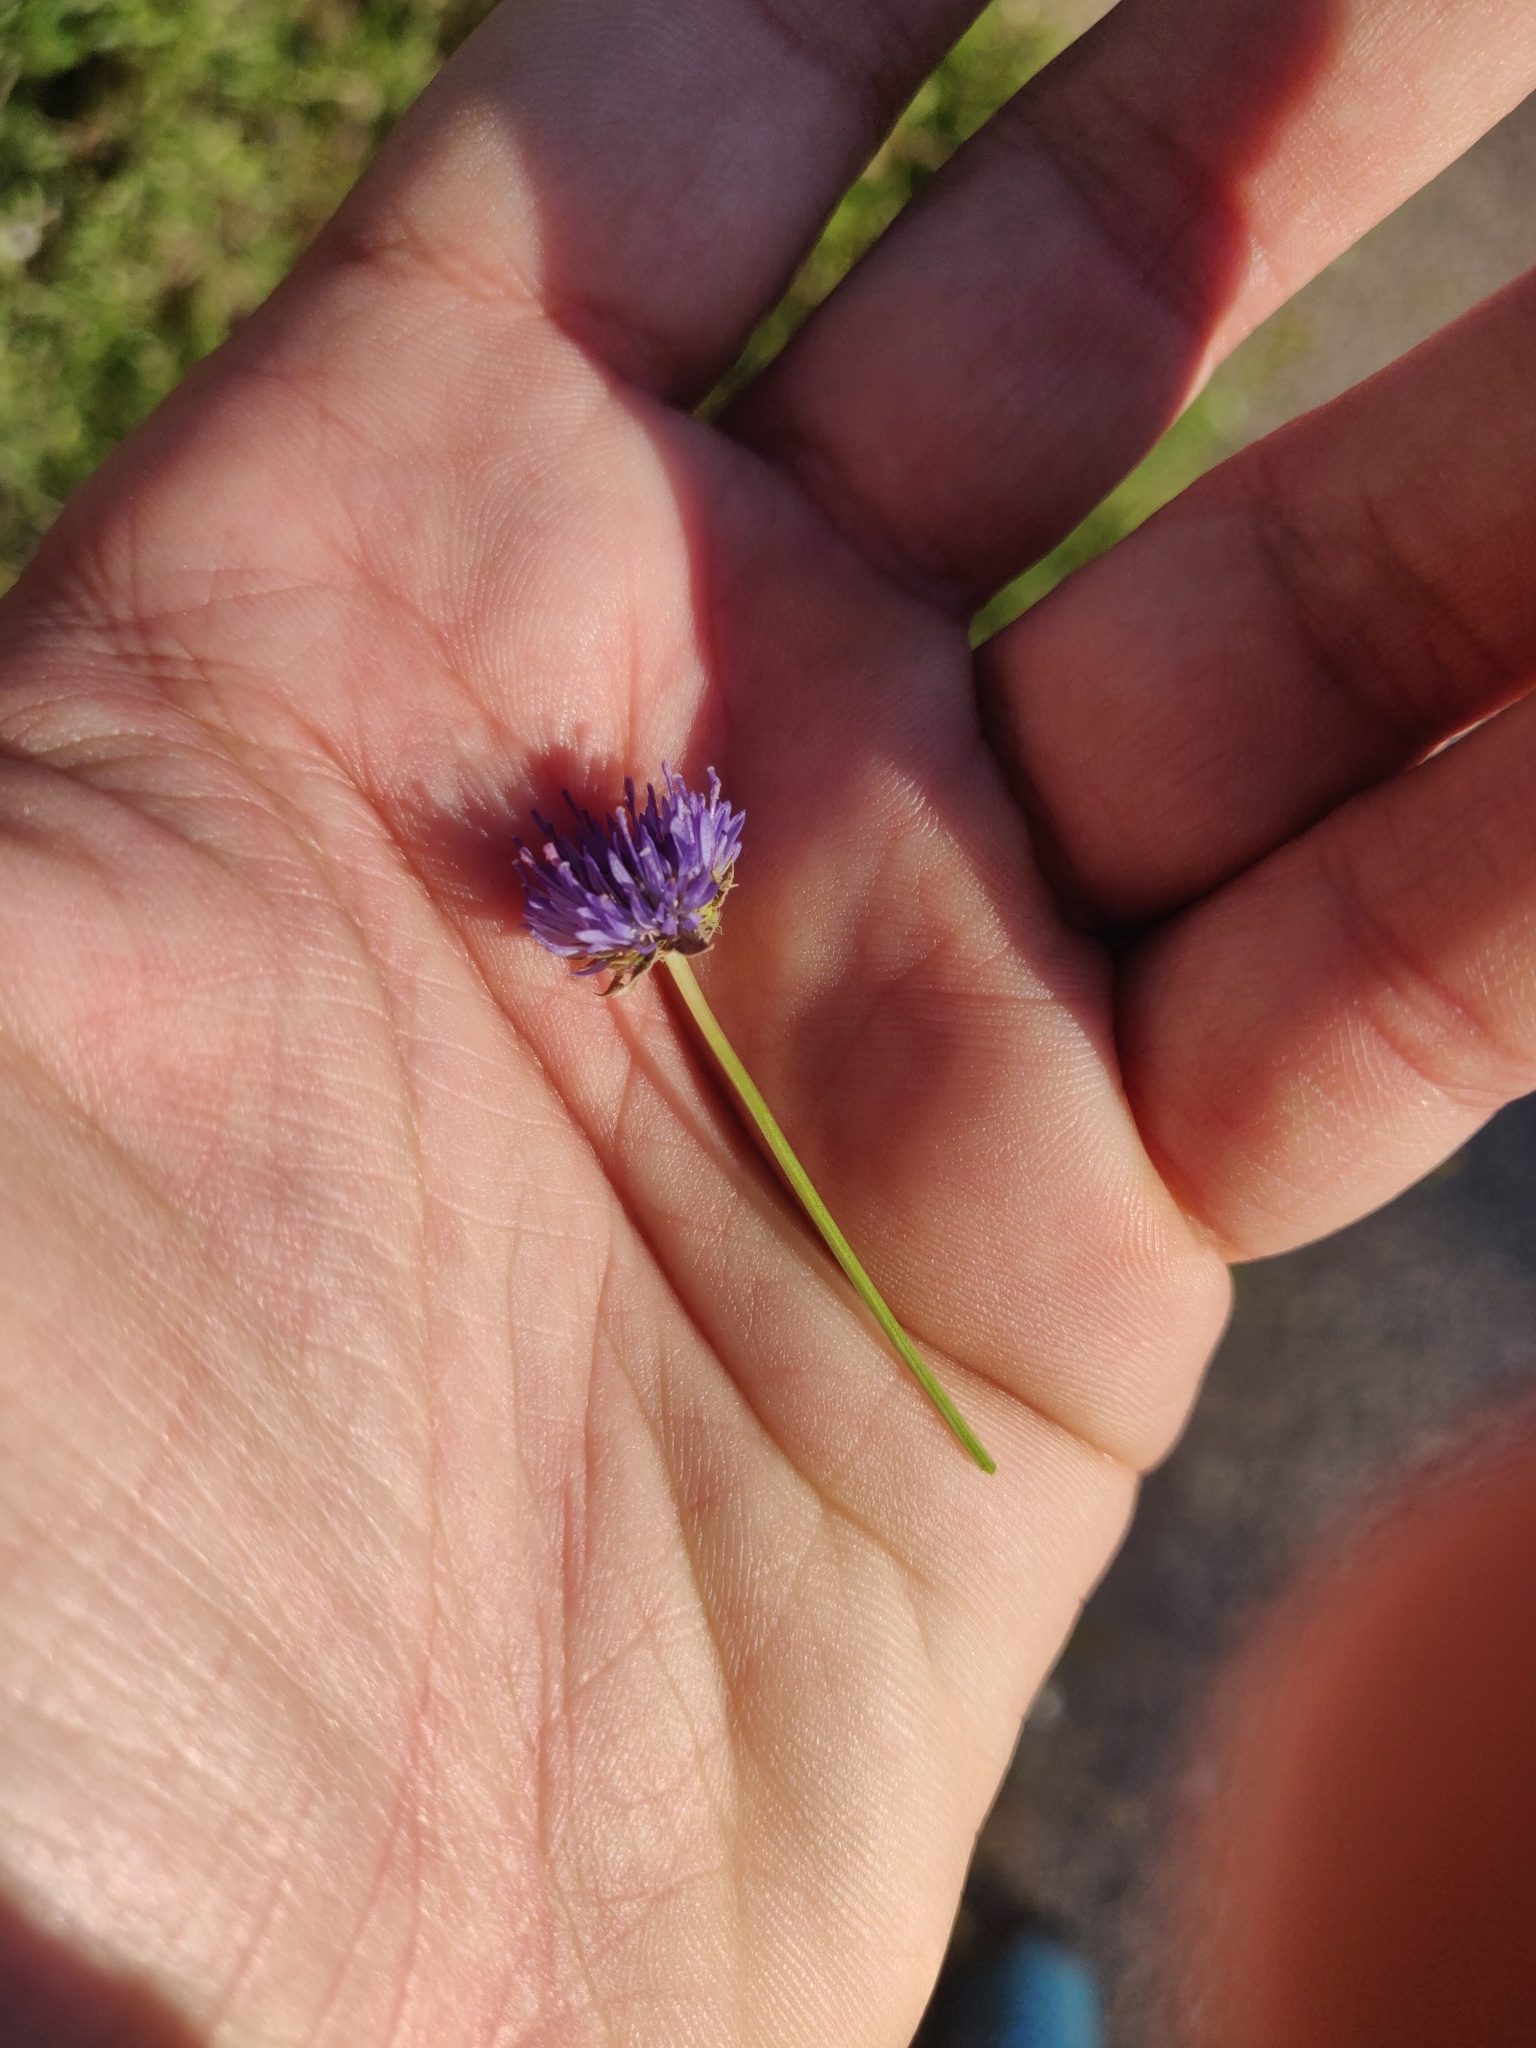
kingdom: Plantae
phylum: Tracheophyta
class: Magnoliopsida
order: Asterales
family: Campanulaceae
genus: Jasione
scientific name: Jasione montana
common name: Sheep's-bit
